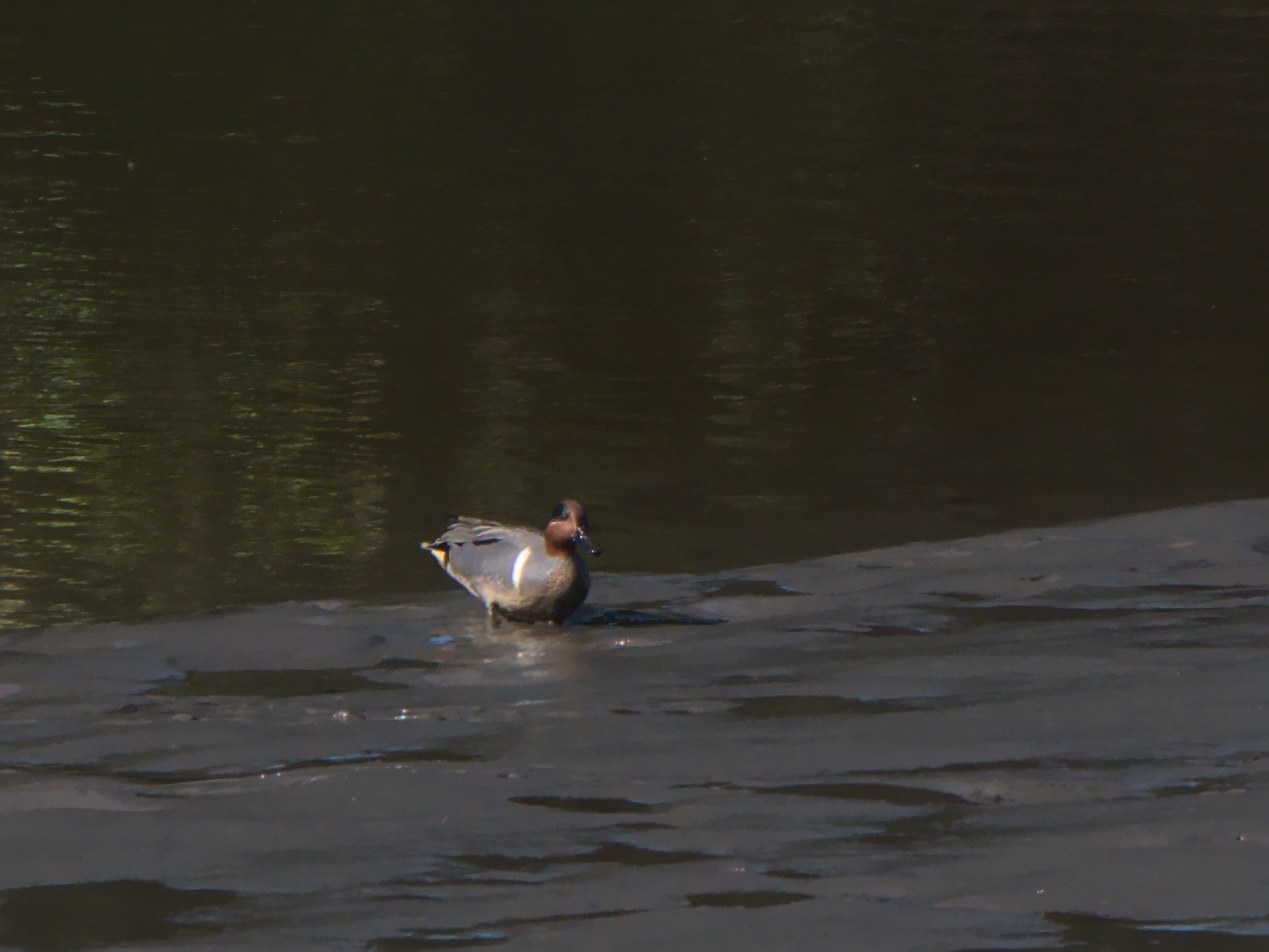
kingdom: Animalia
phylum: Chordata
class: Aves
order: Anseriformes
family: Anatidae
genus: Anas
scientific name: Anas crecca
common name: Eurasian teal
